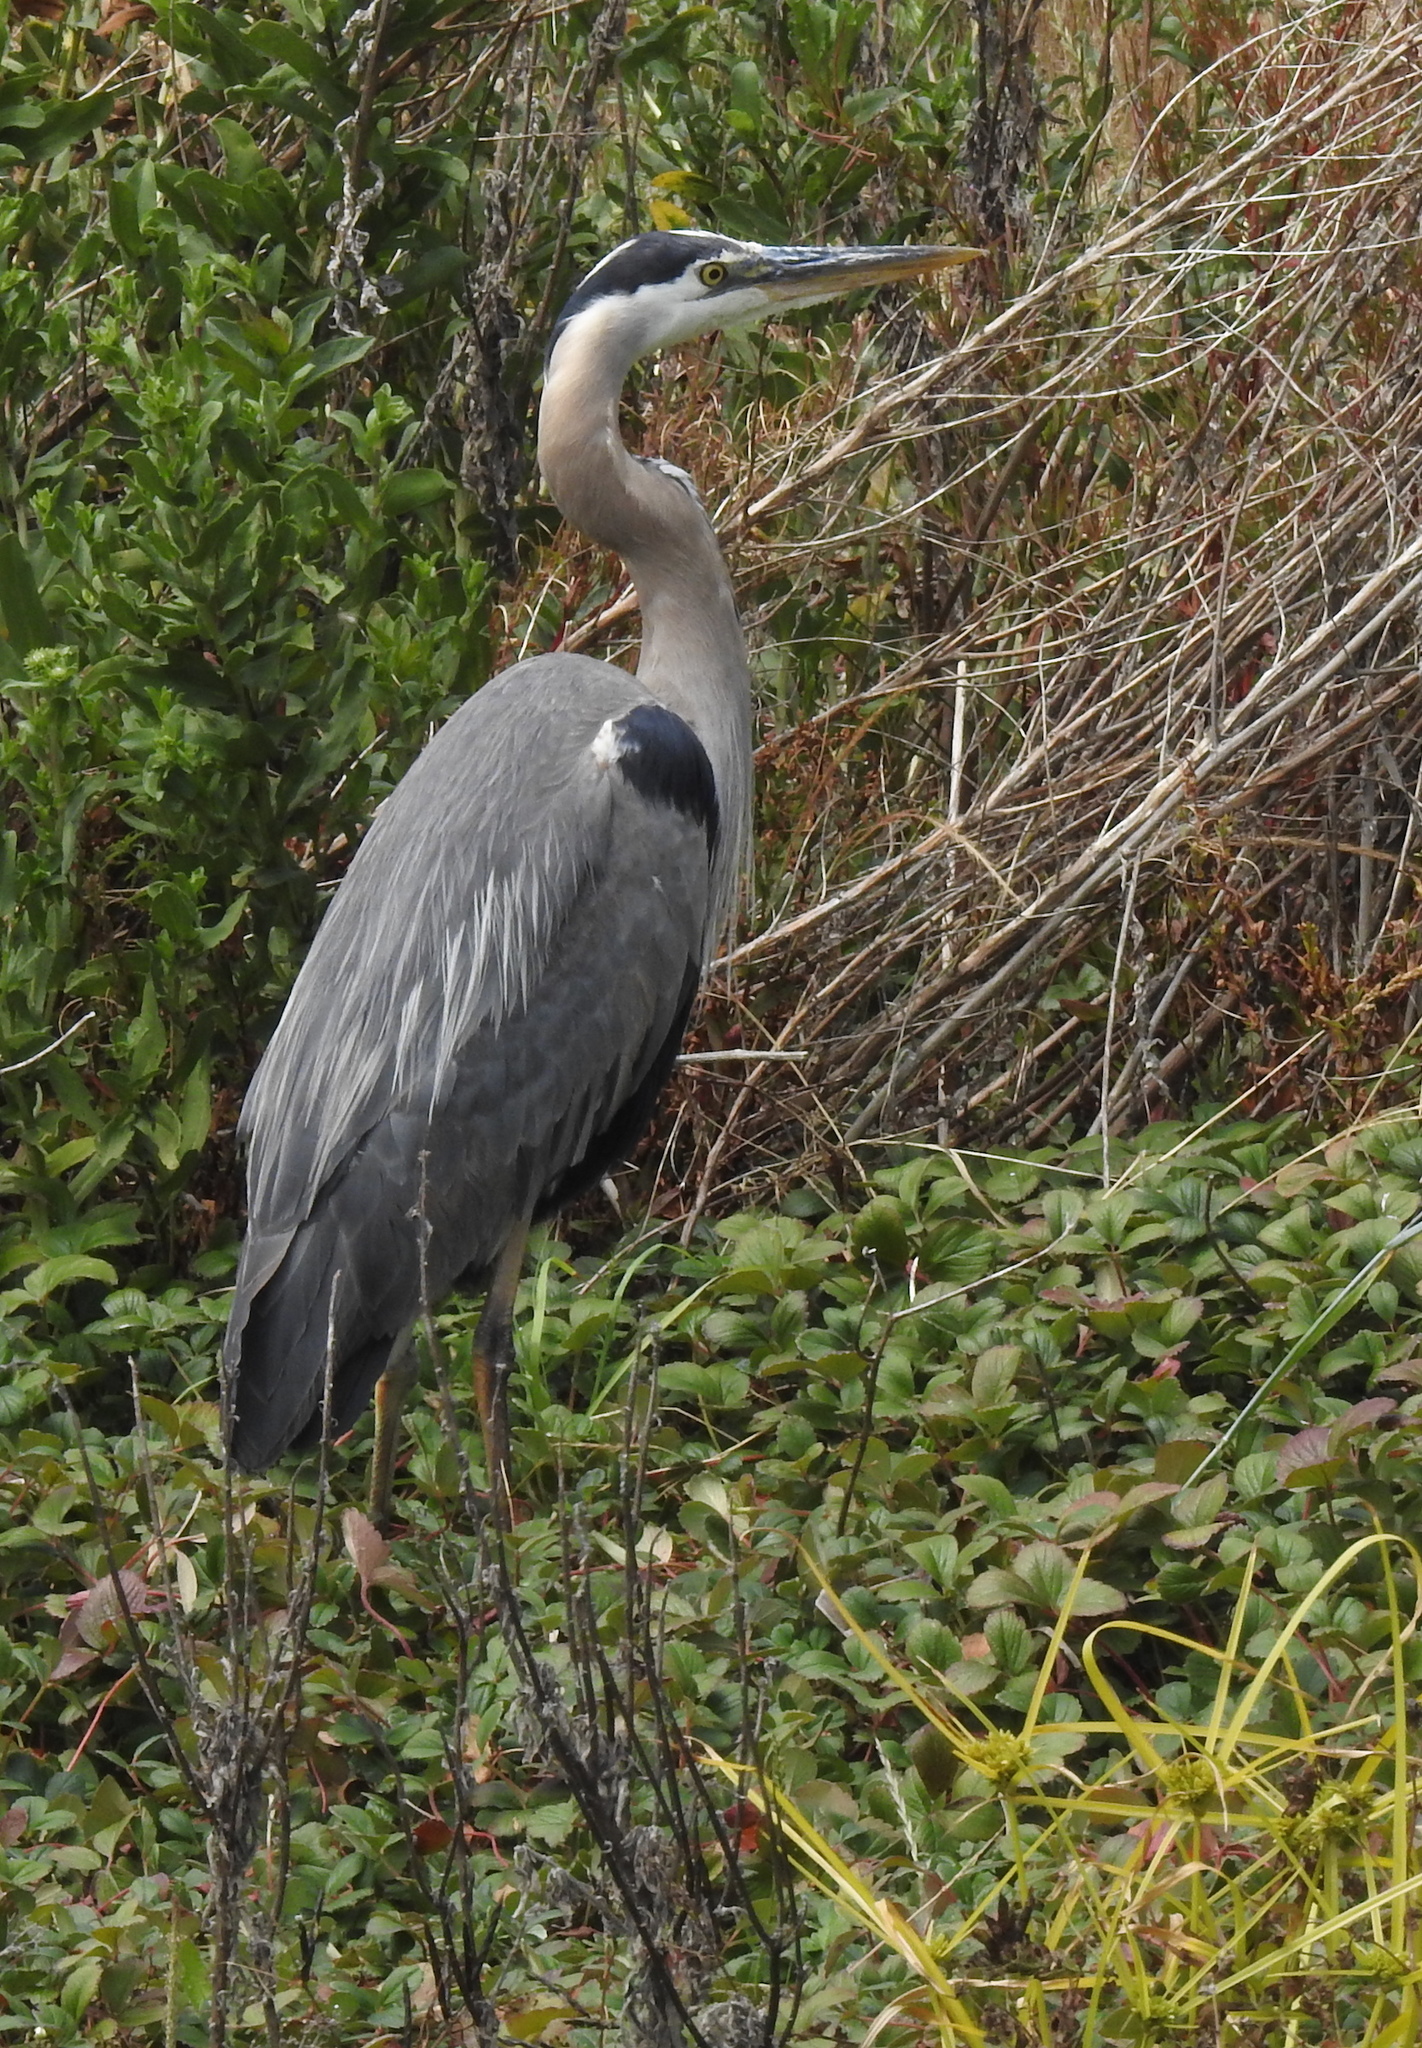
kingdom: Animalia
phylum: Chordata
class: Aves
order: Pelecaniformes
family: Ardeidae
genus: Ardea
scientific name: Ardea herodias
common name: Great blue heron
